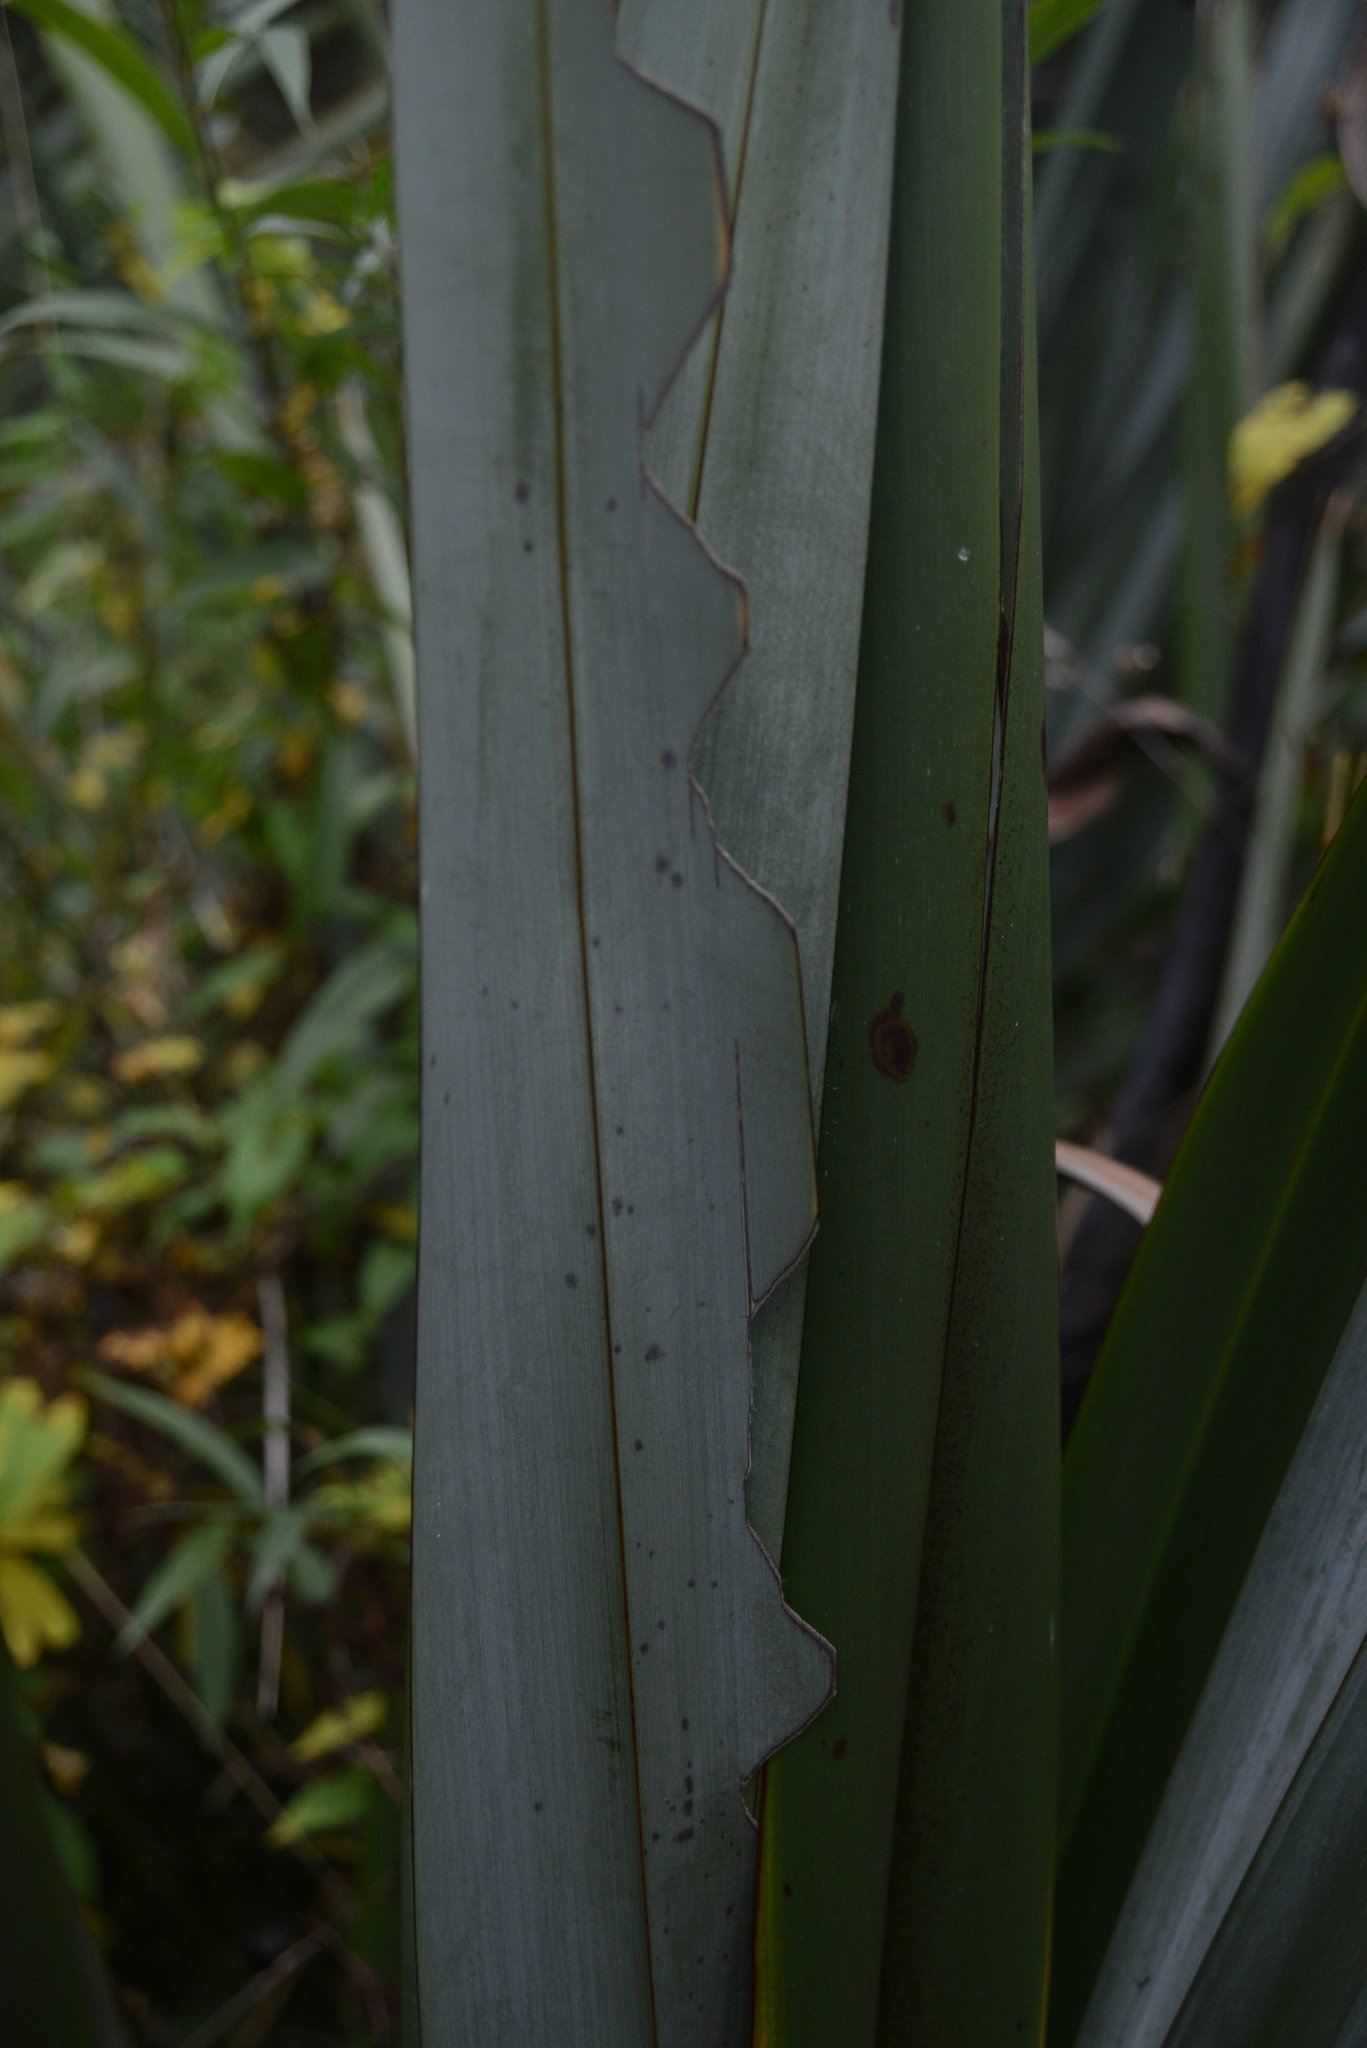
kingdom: Animalia
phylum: Arthropoda
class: Insecta
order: Lepidoptera
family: Noctuidae
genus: Ichneutica
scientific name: Ichneutica
